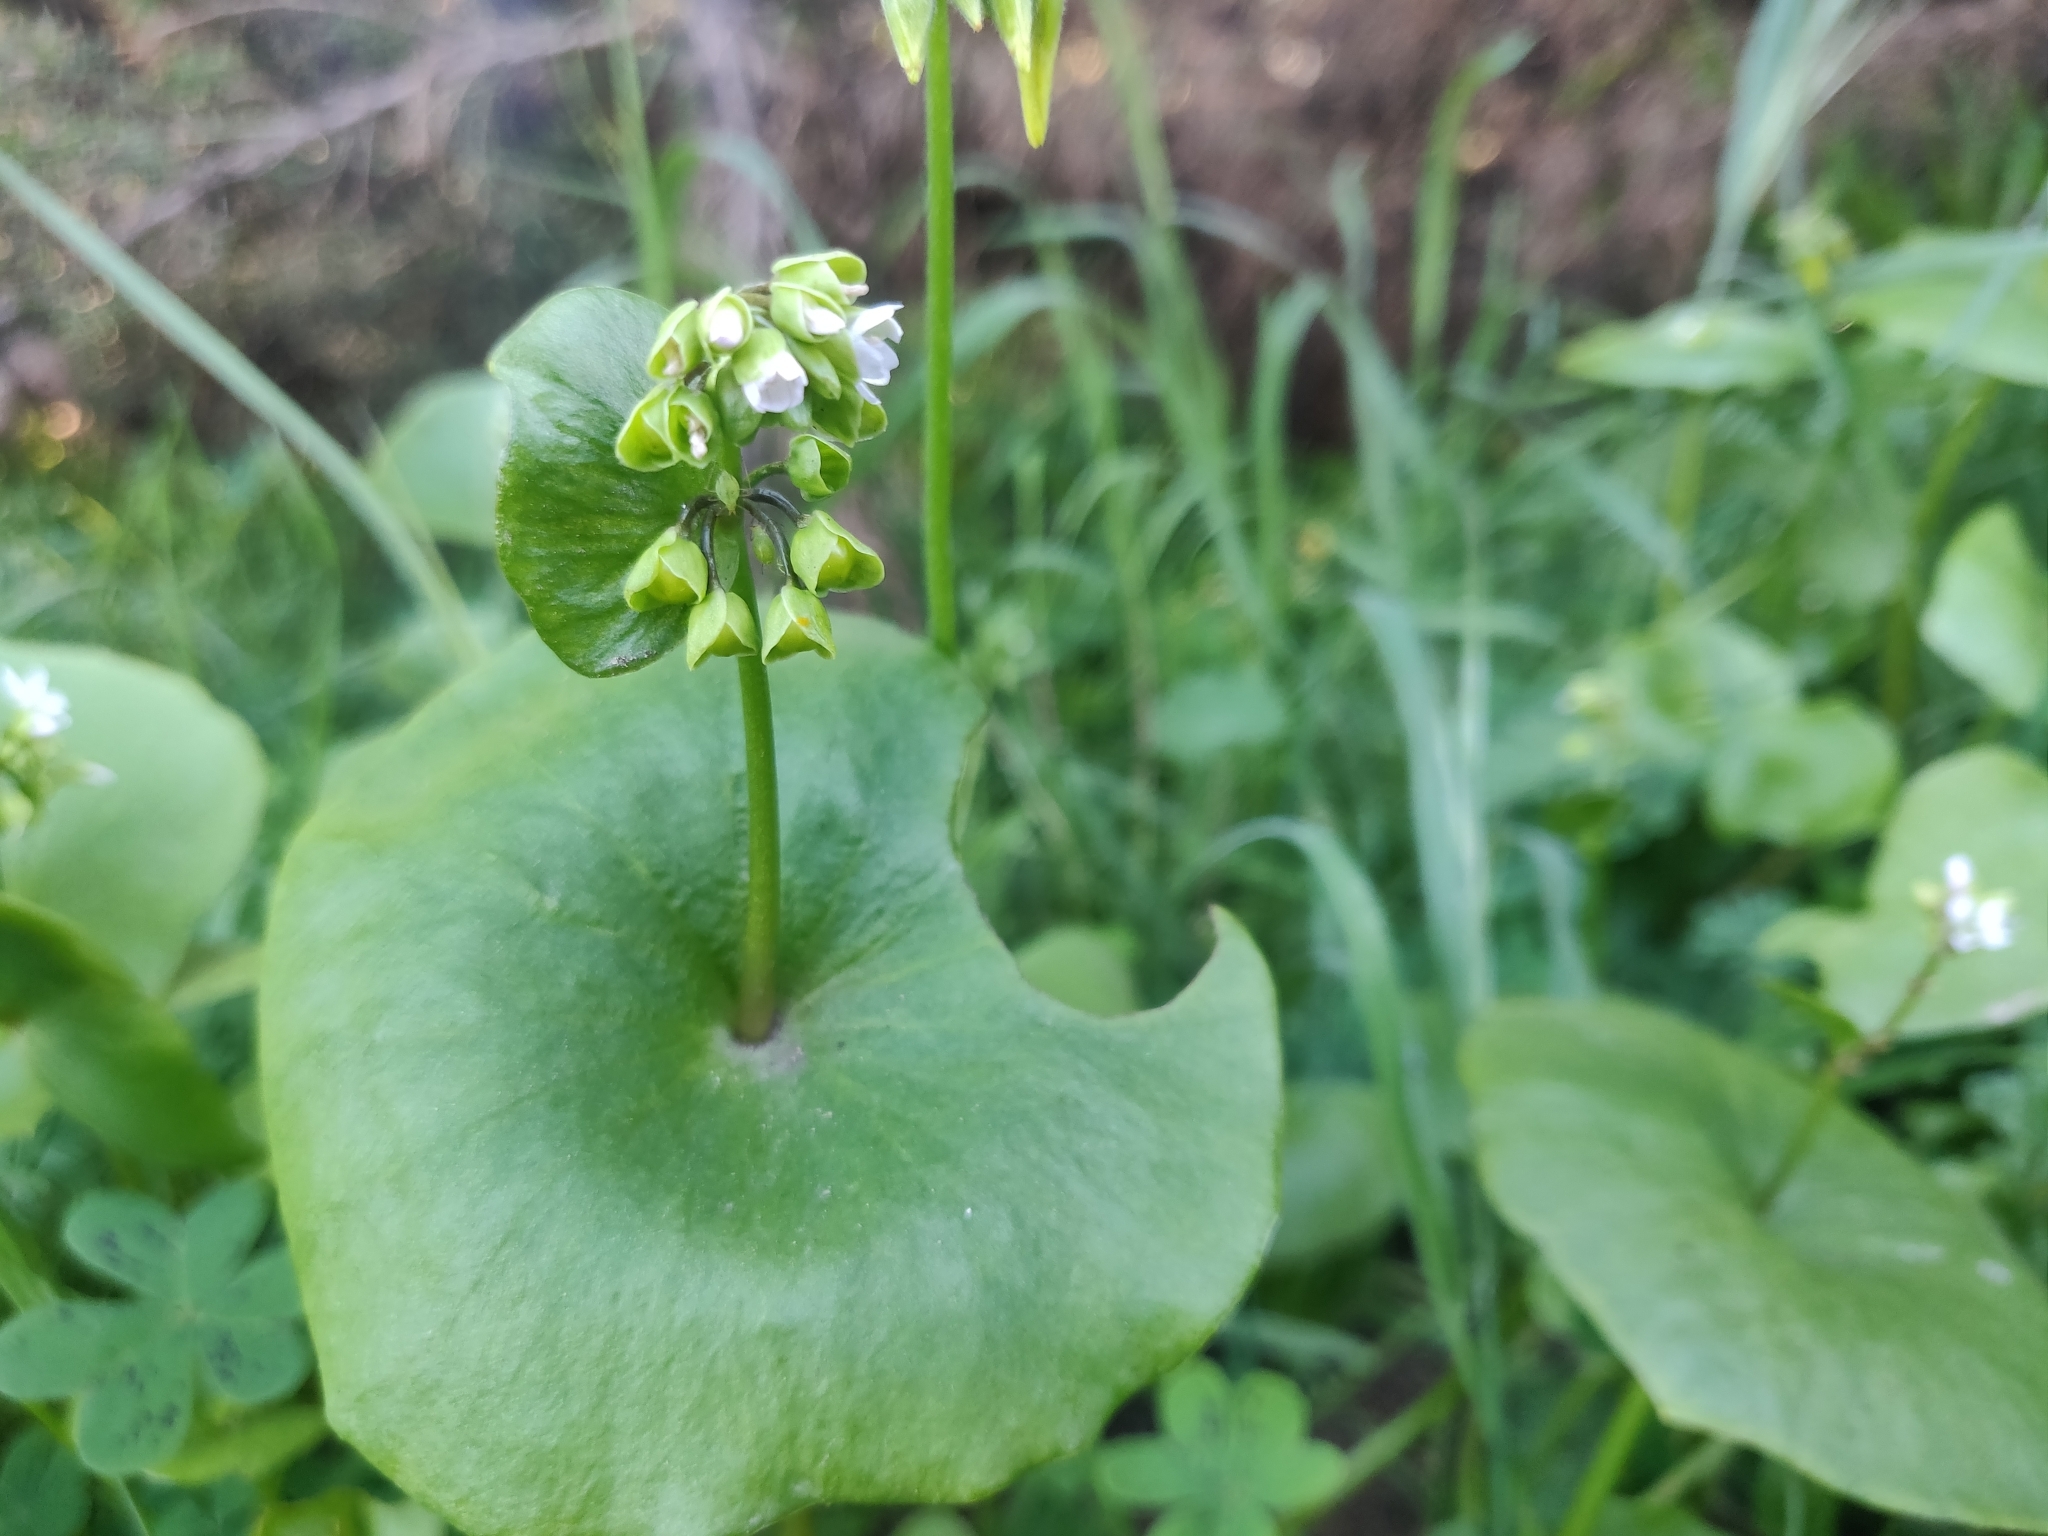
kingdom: Plantae
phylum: Tracheophyta
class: Magnoliopsida
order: Caryophyllales
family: Montiaceae
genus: Claytonia
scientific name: Claytonia perfoliata
